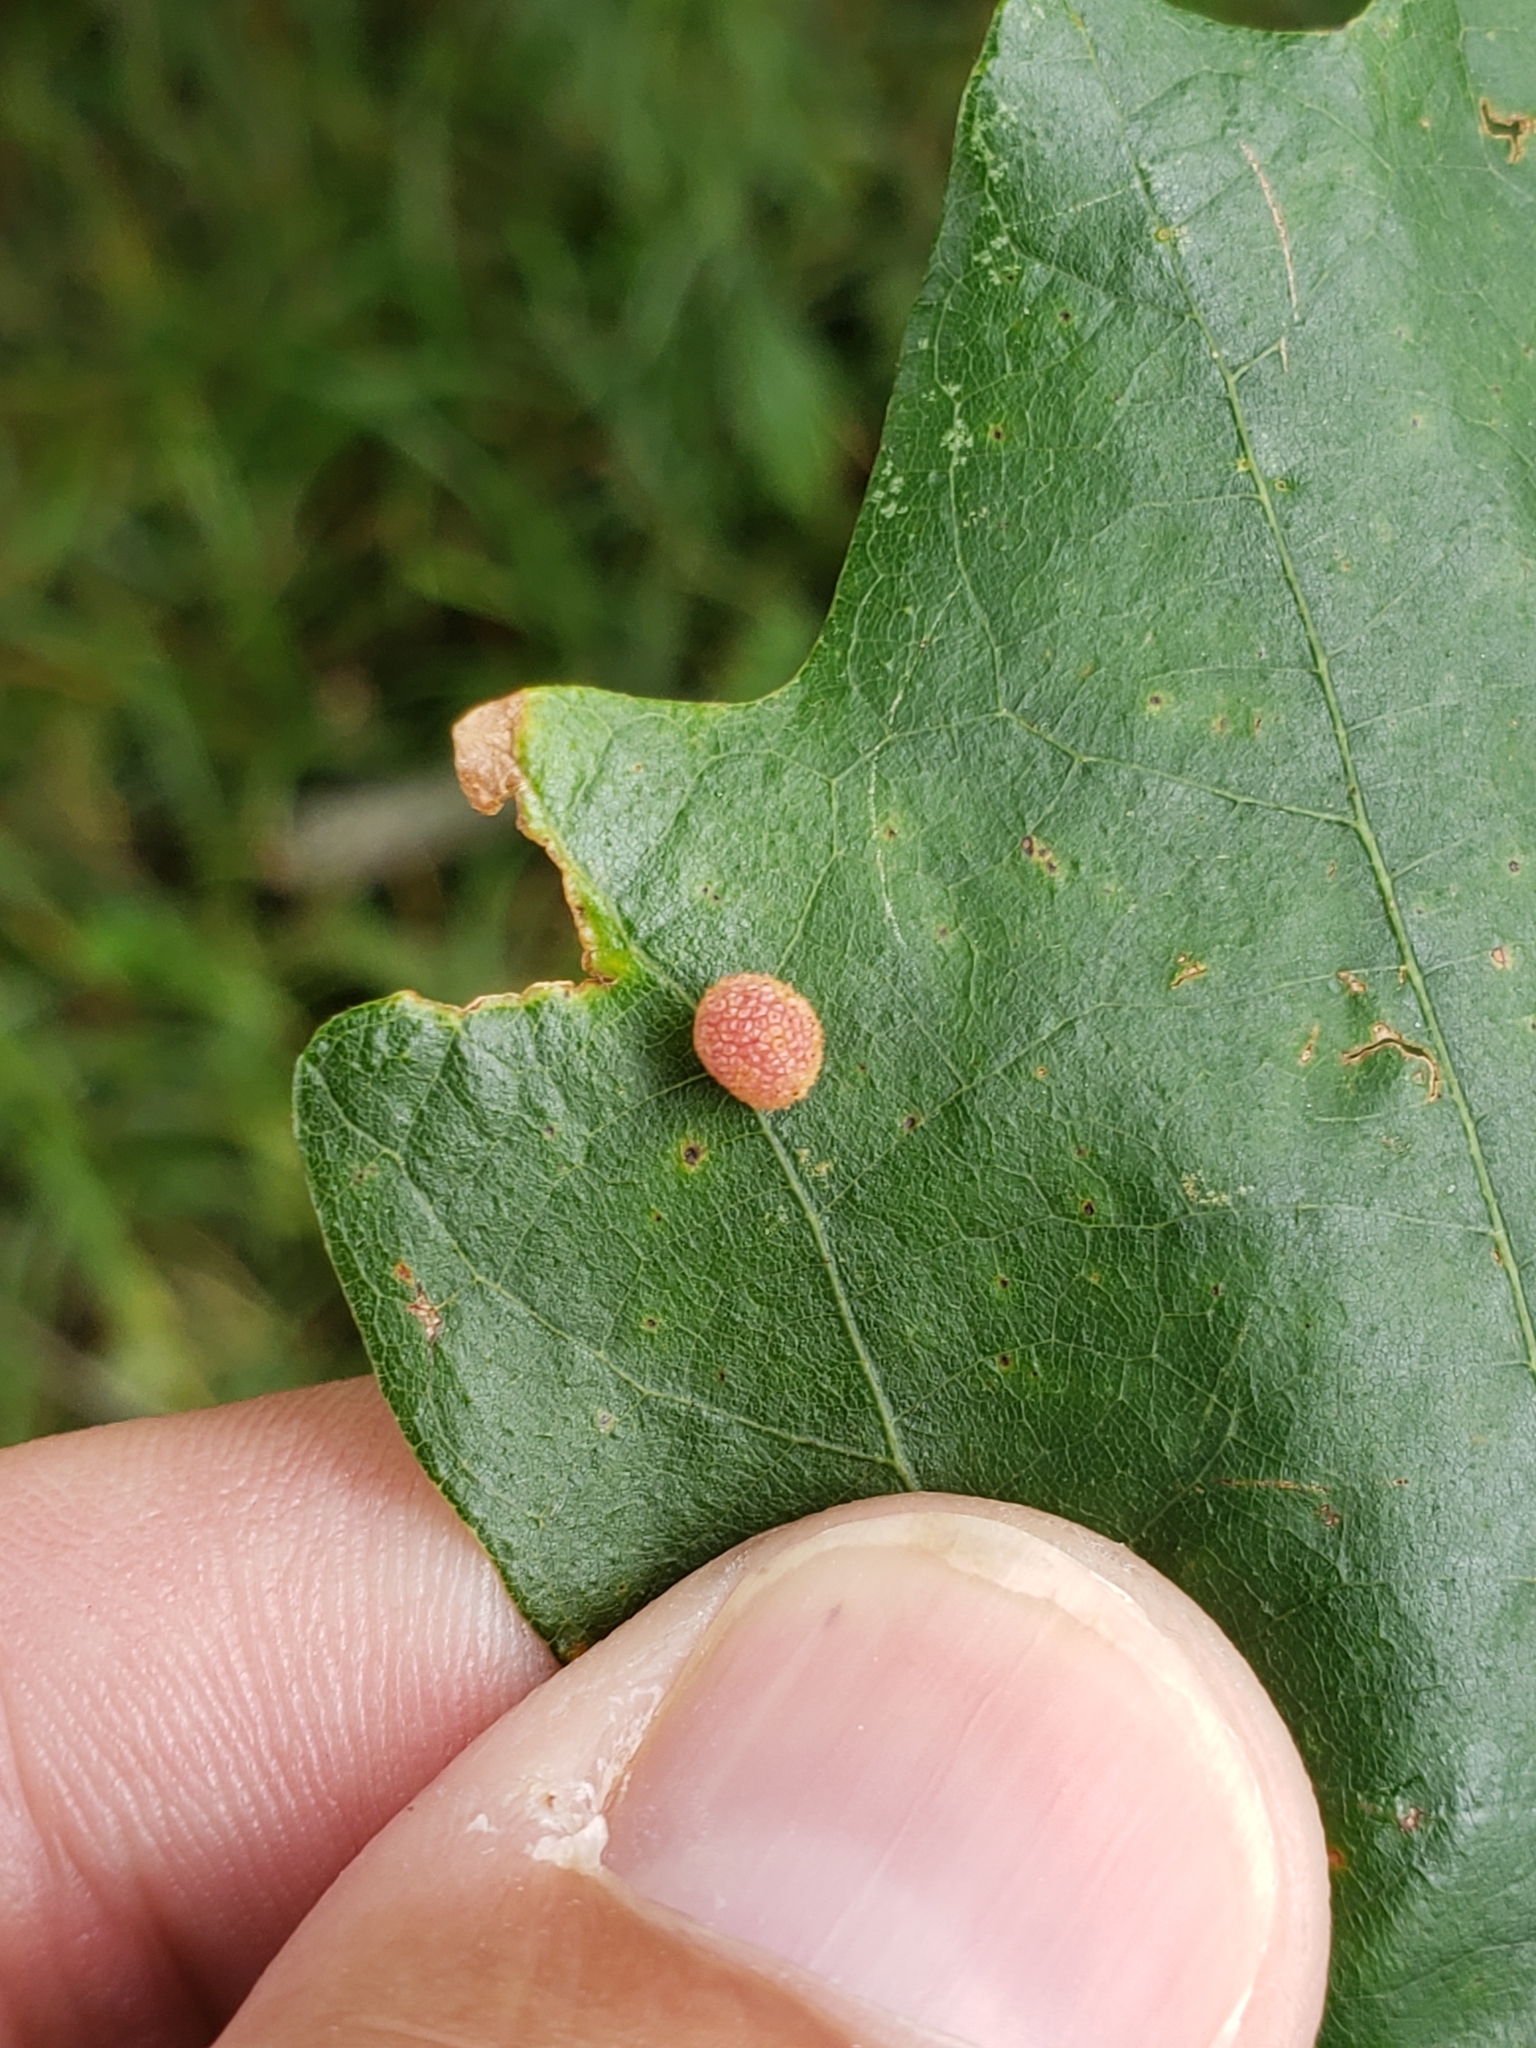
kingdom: Animalia
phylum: Arthropoda
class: Insecta
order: Hymenoptera
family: Cynipidae
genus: Acraspis
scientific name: Acraspis quercushirta
